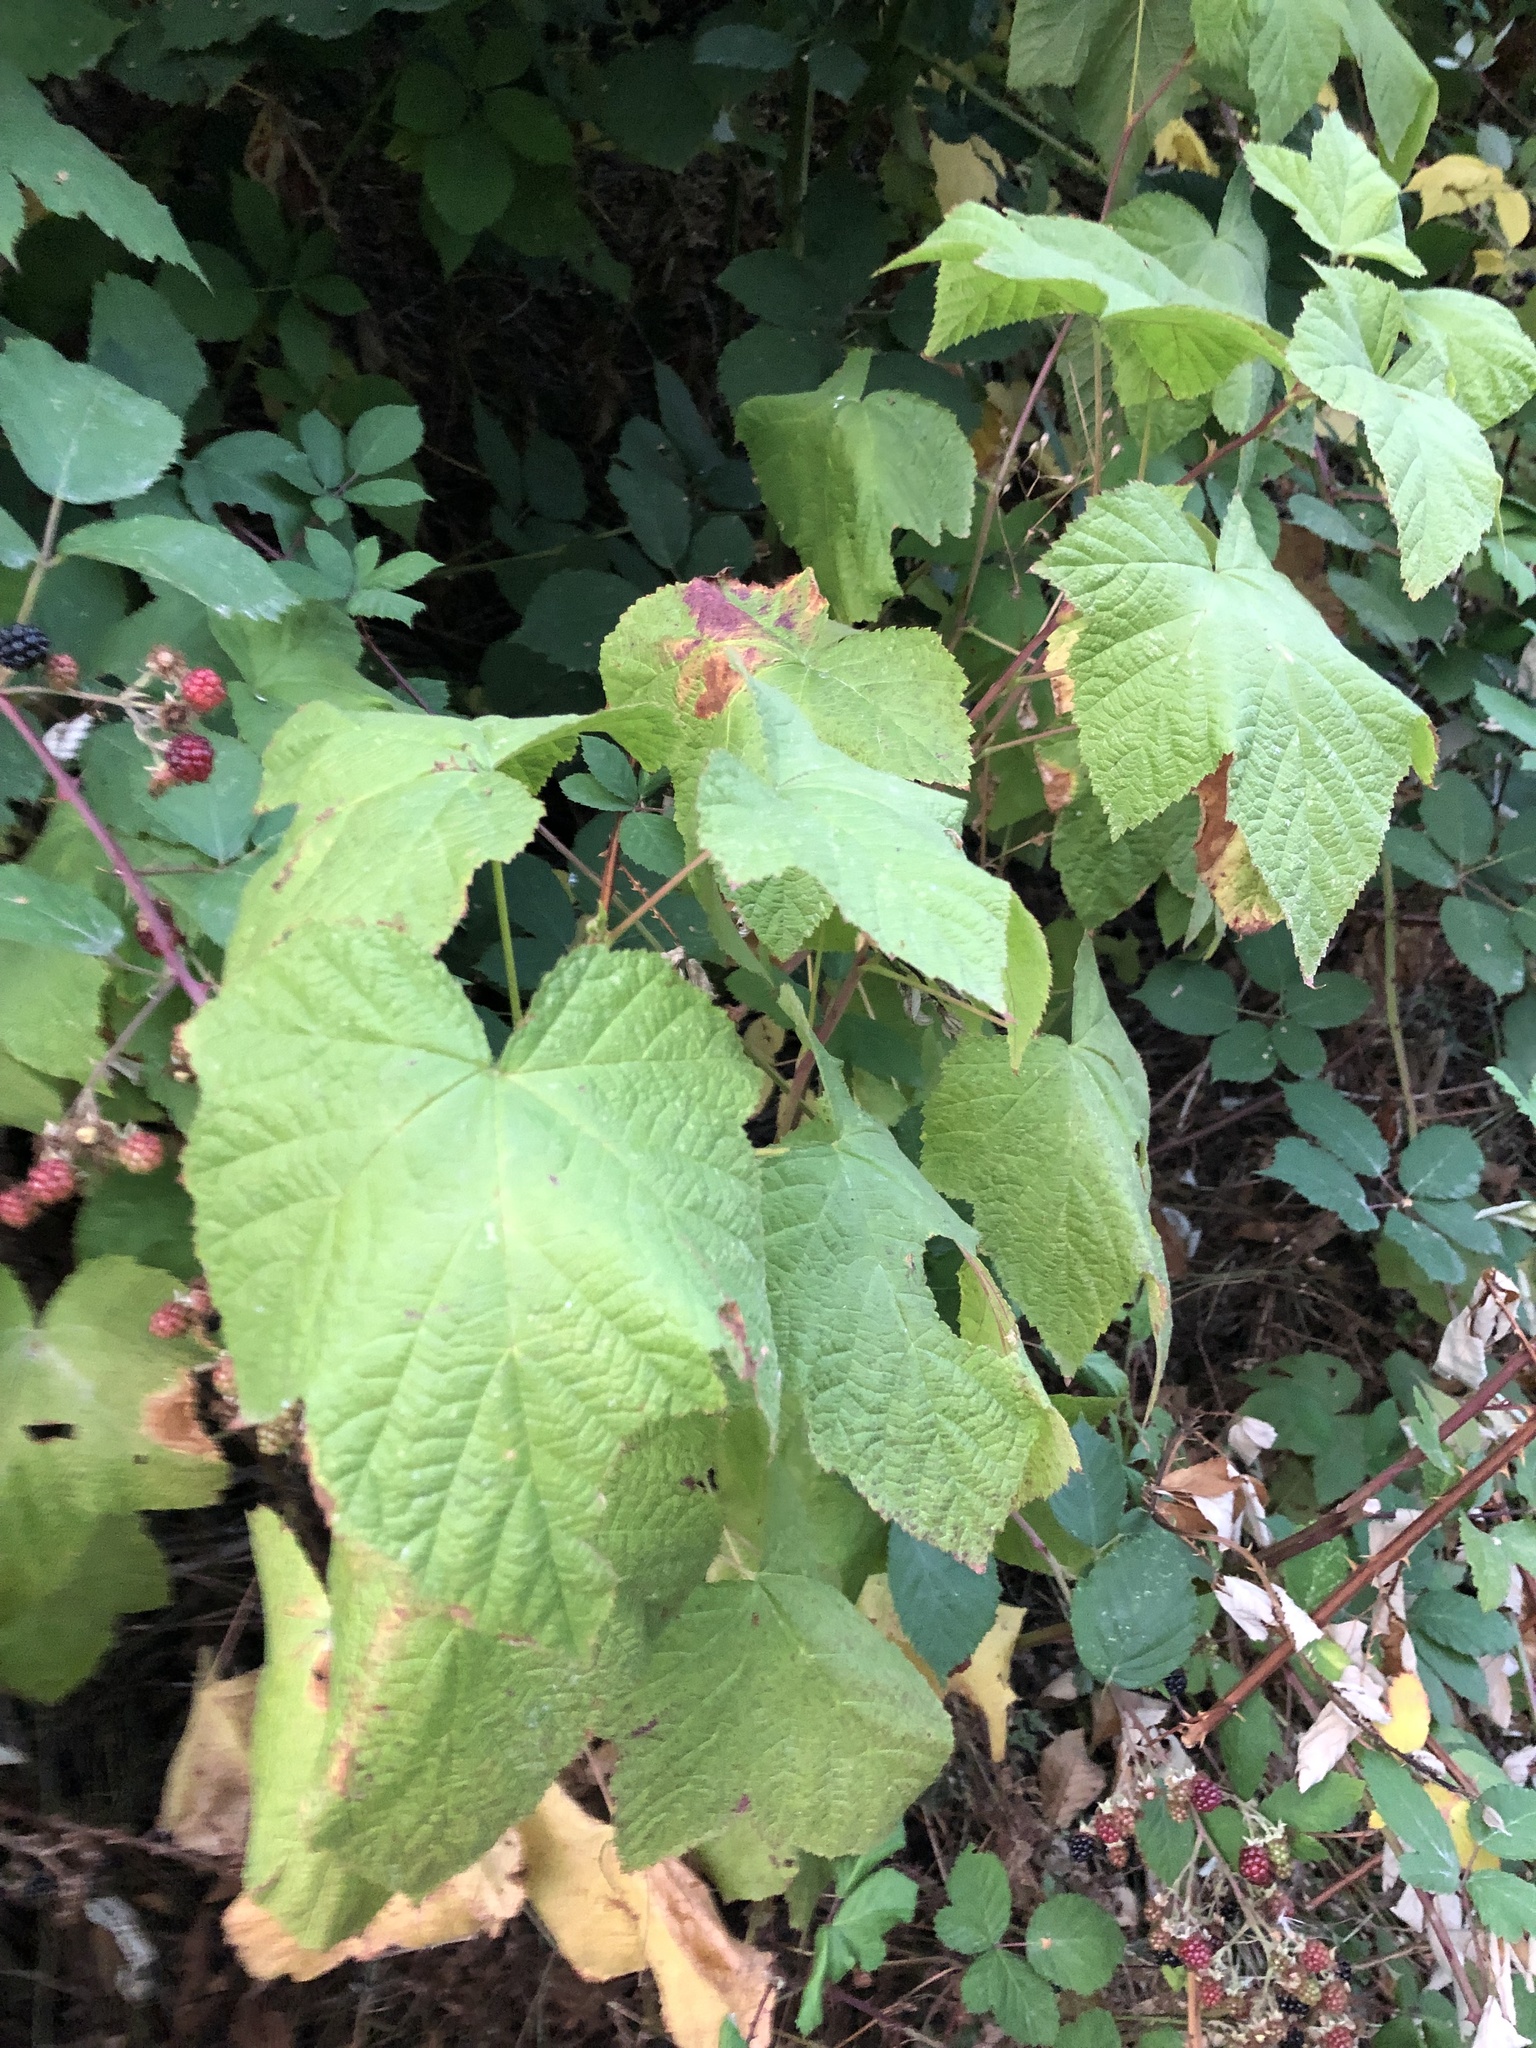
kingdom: Plantae
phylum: Tracheophyta
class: Magnoliopsida
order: Rosales
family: Rosaceae
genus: Rubus
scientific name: Rubus parviflorus
